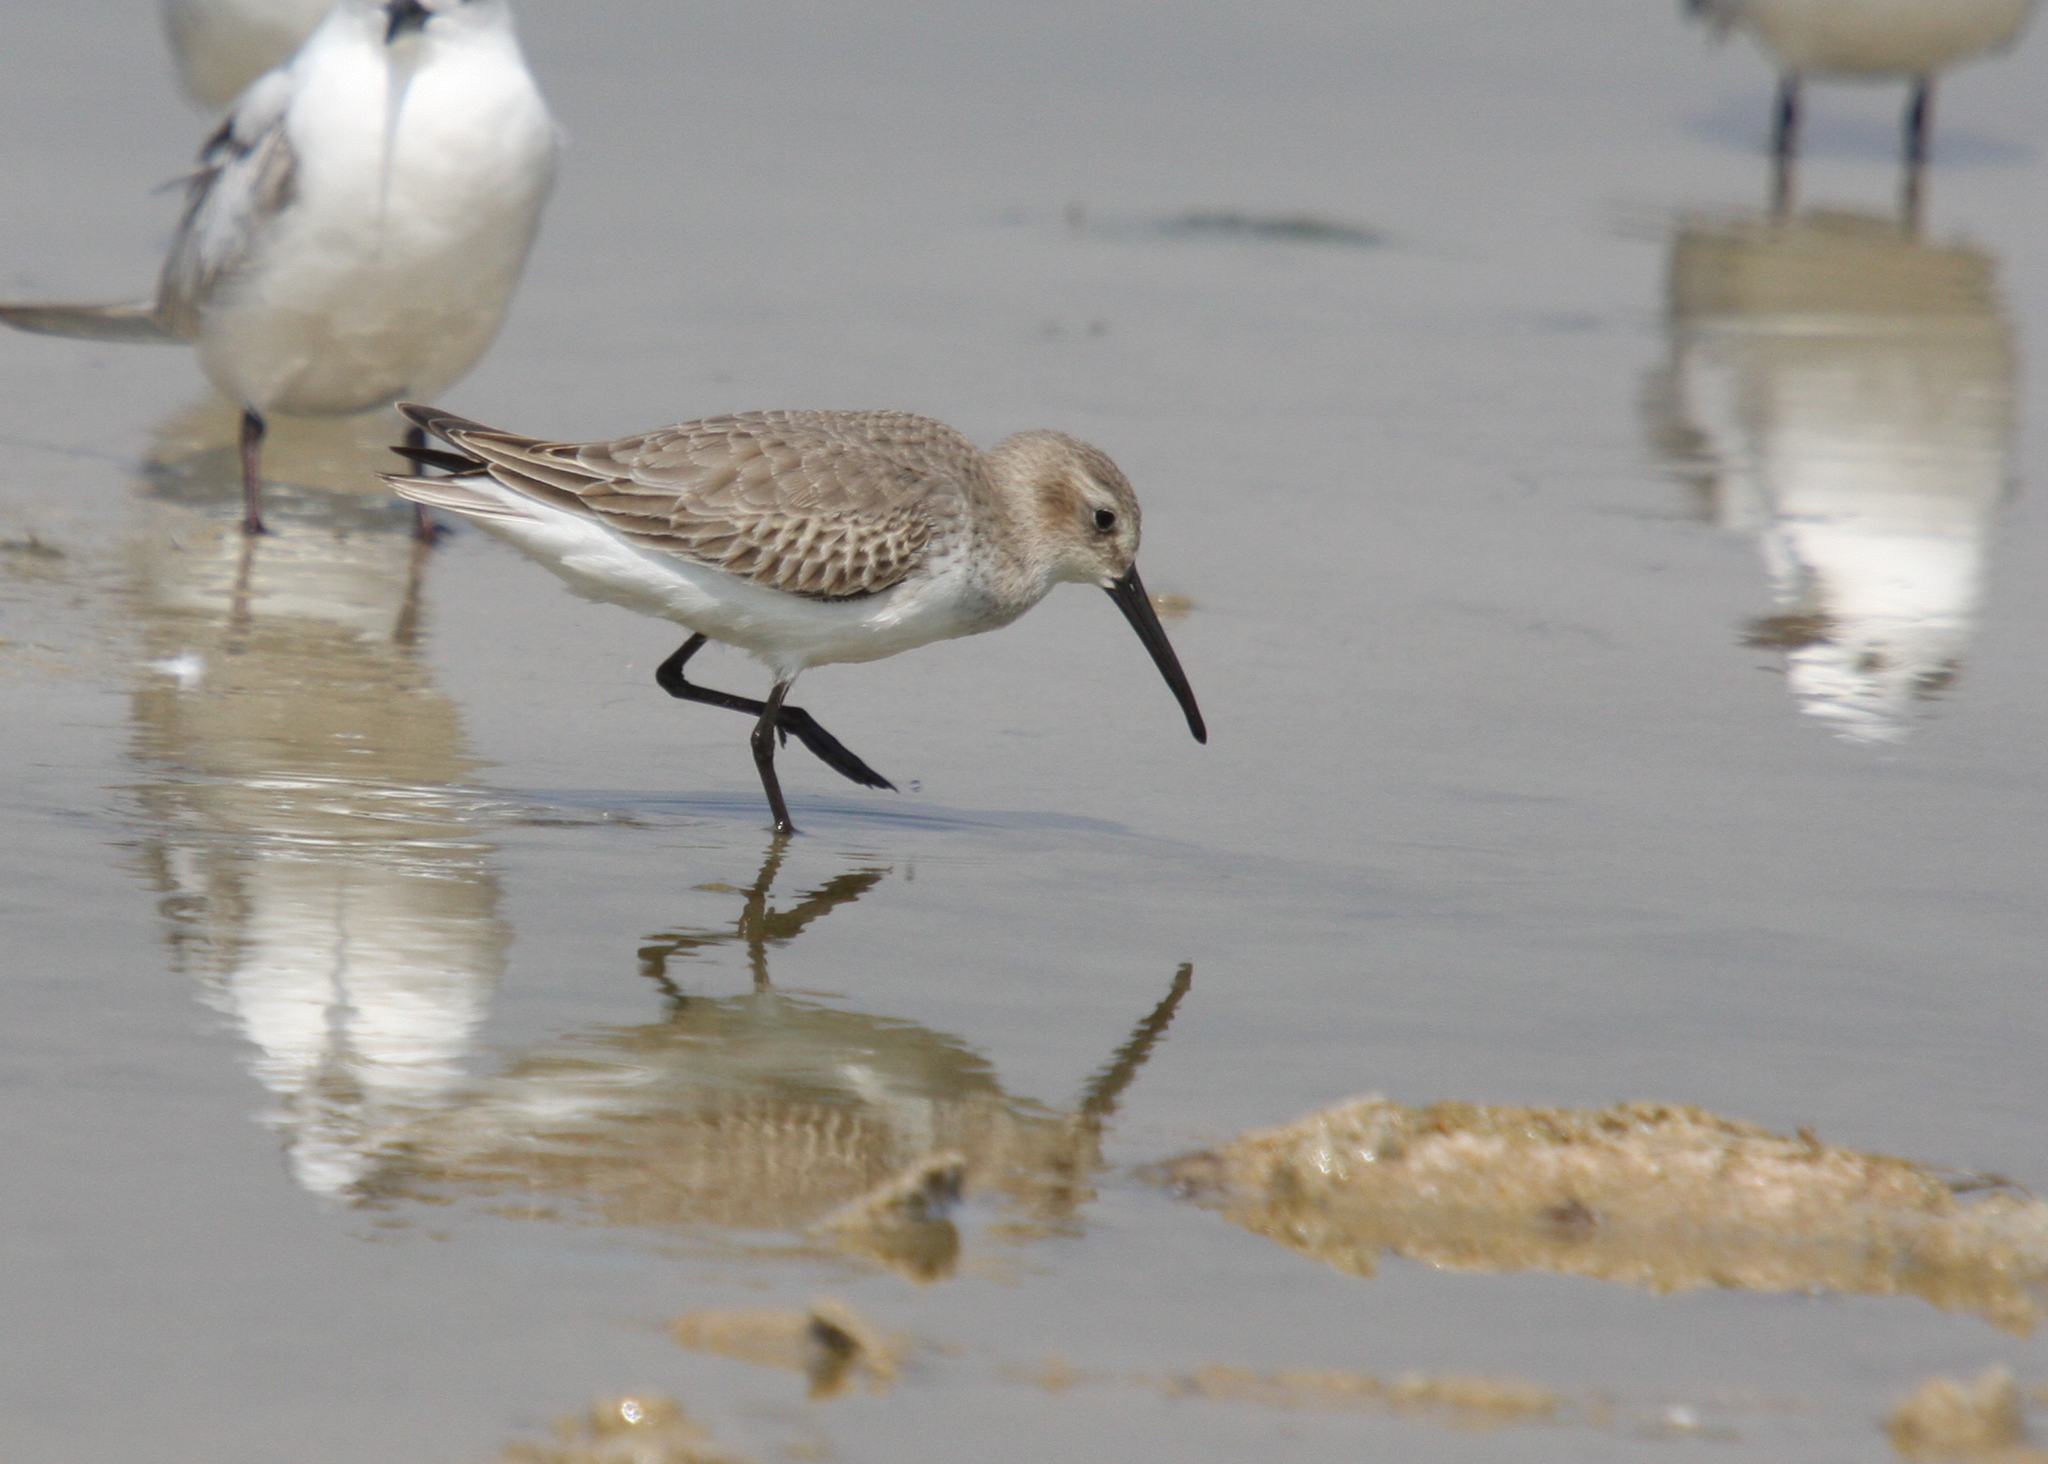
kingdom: Animalia
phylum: Chordata
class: Aves
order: Charadriiformes
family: Scolopacidae
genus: Calidris
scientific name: Calidris alpina
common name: Dunlin
